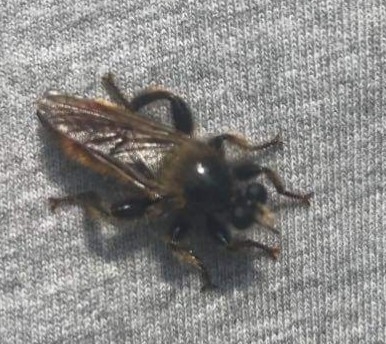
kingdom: Animalia
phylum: Arthropoda
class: Insecta
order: Diptera
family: Asilidae
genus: Laphria
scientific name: Laphria flava
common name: Bumblebee robberfly
